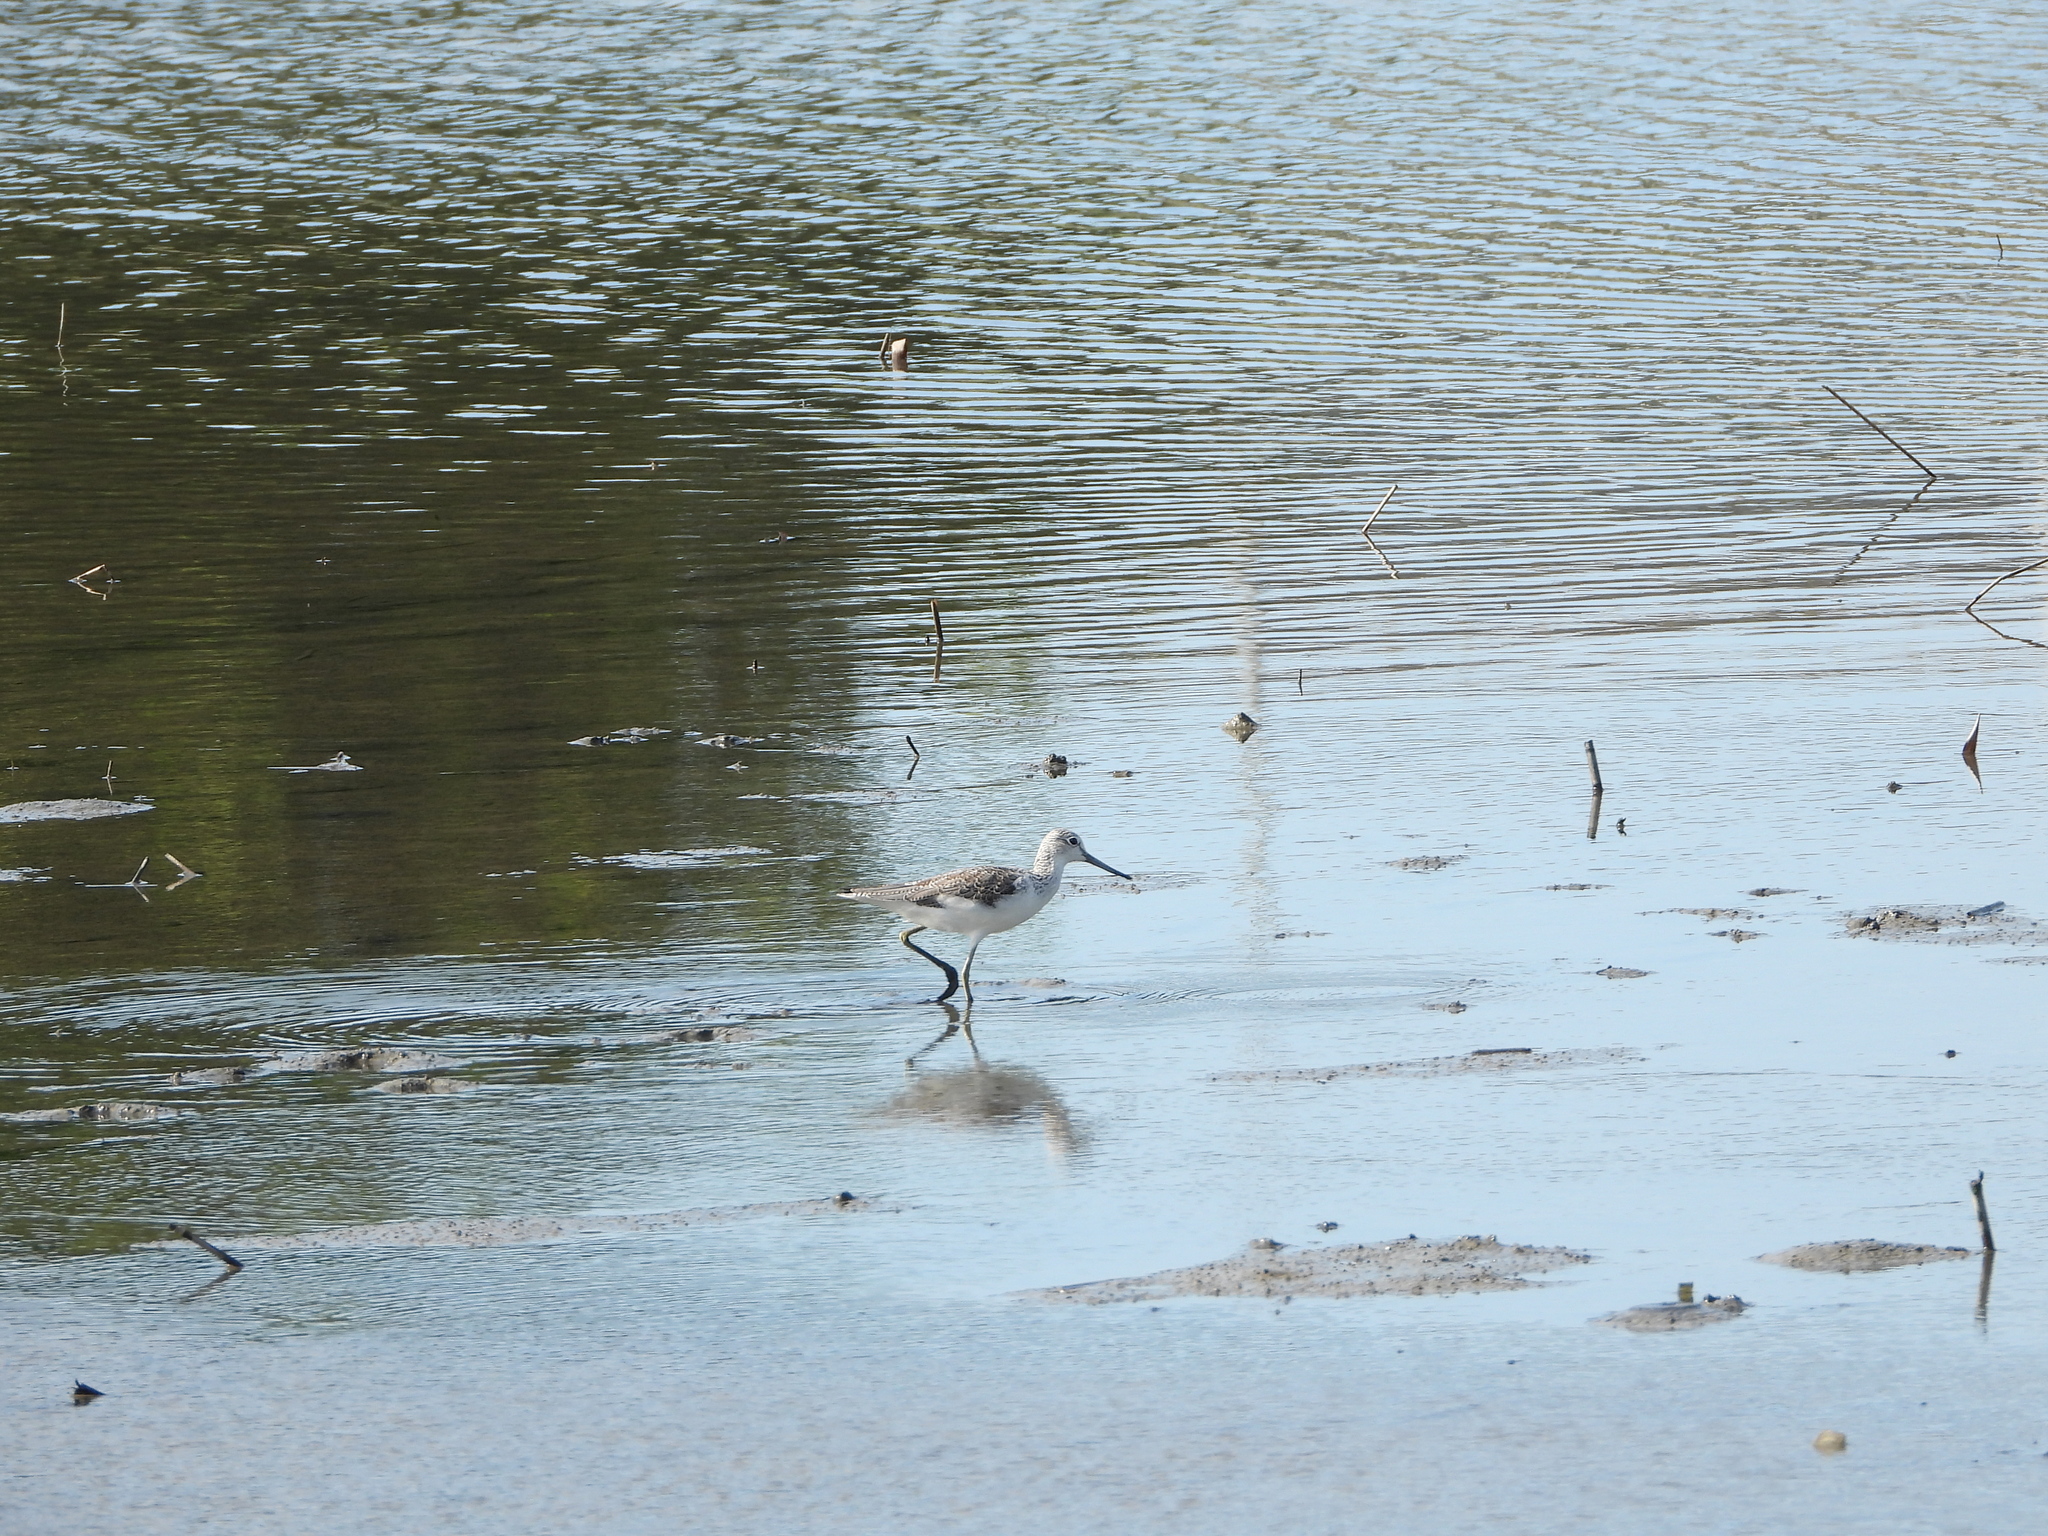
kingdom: Animalia
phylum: Chordata
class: Aves
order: Charadriiformes
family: Scolopacidae
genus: Tringa
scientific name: Tringa nebularia
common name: Common greenshank
